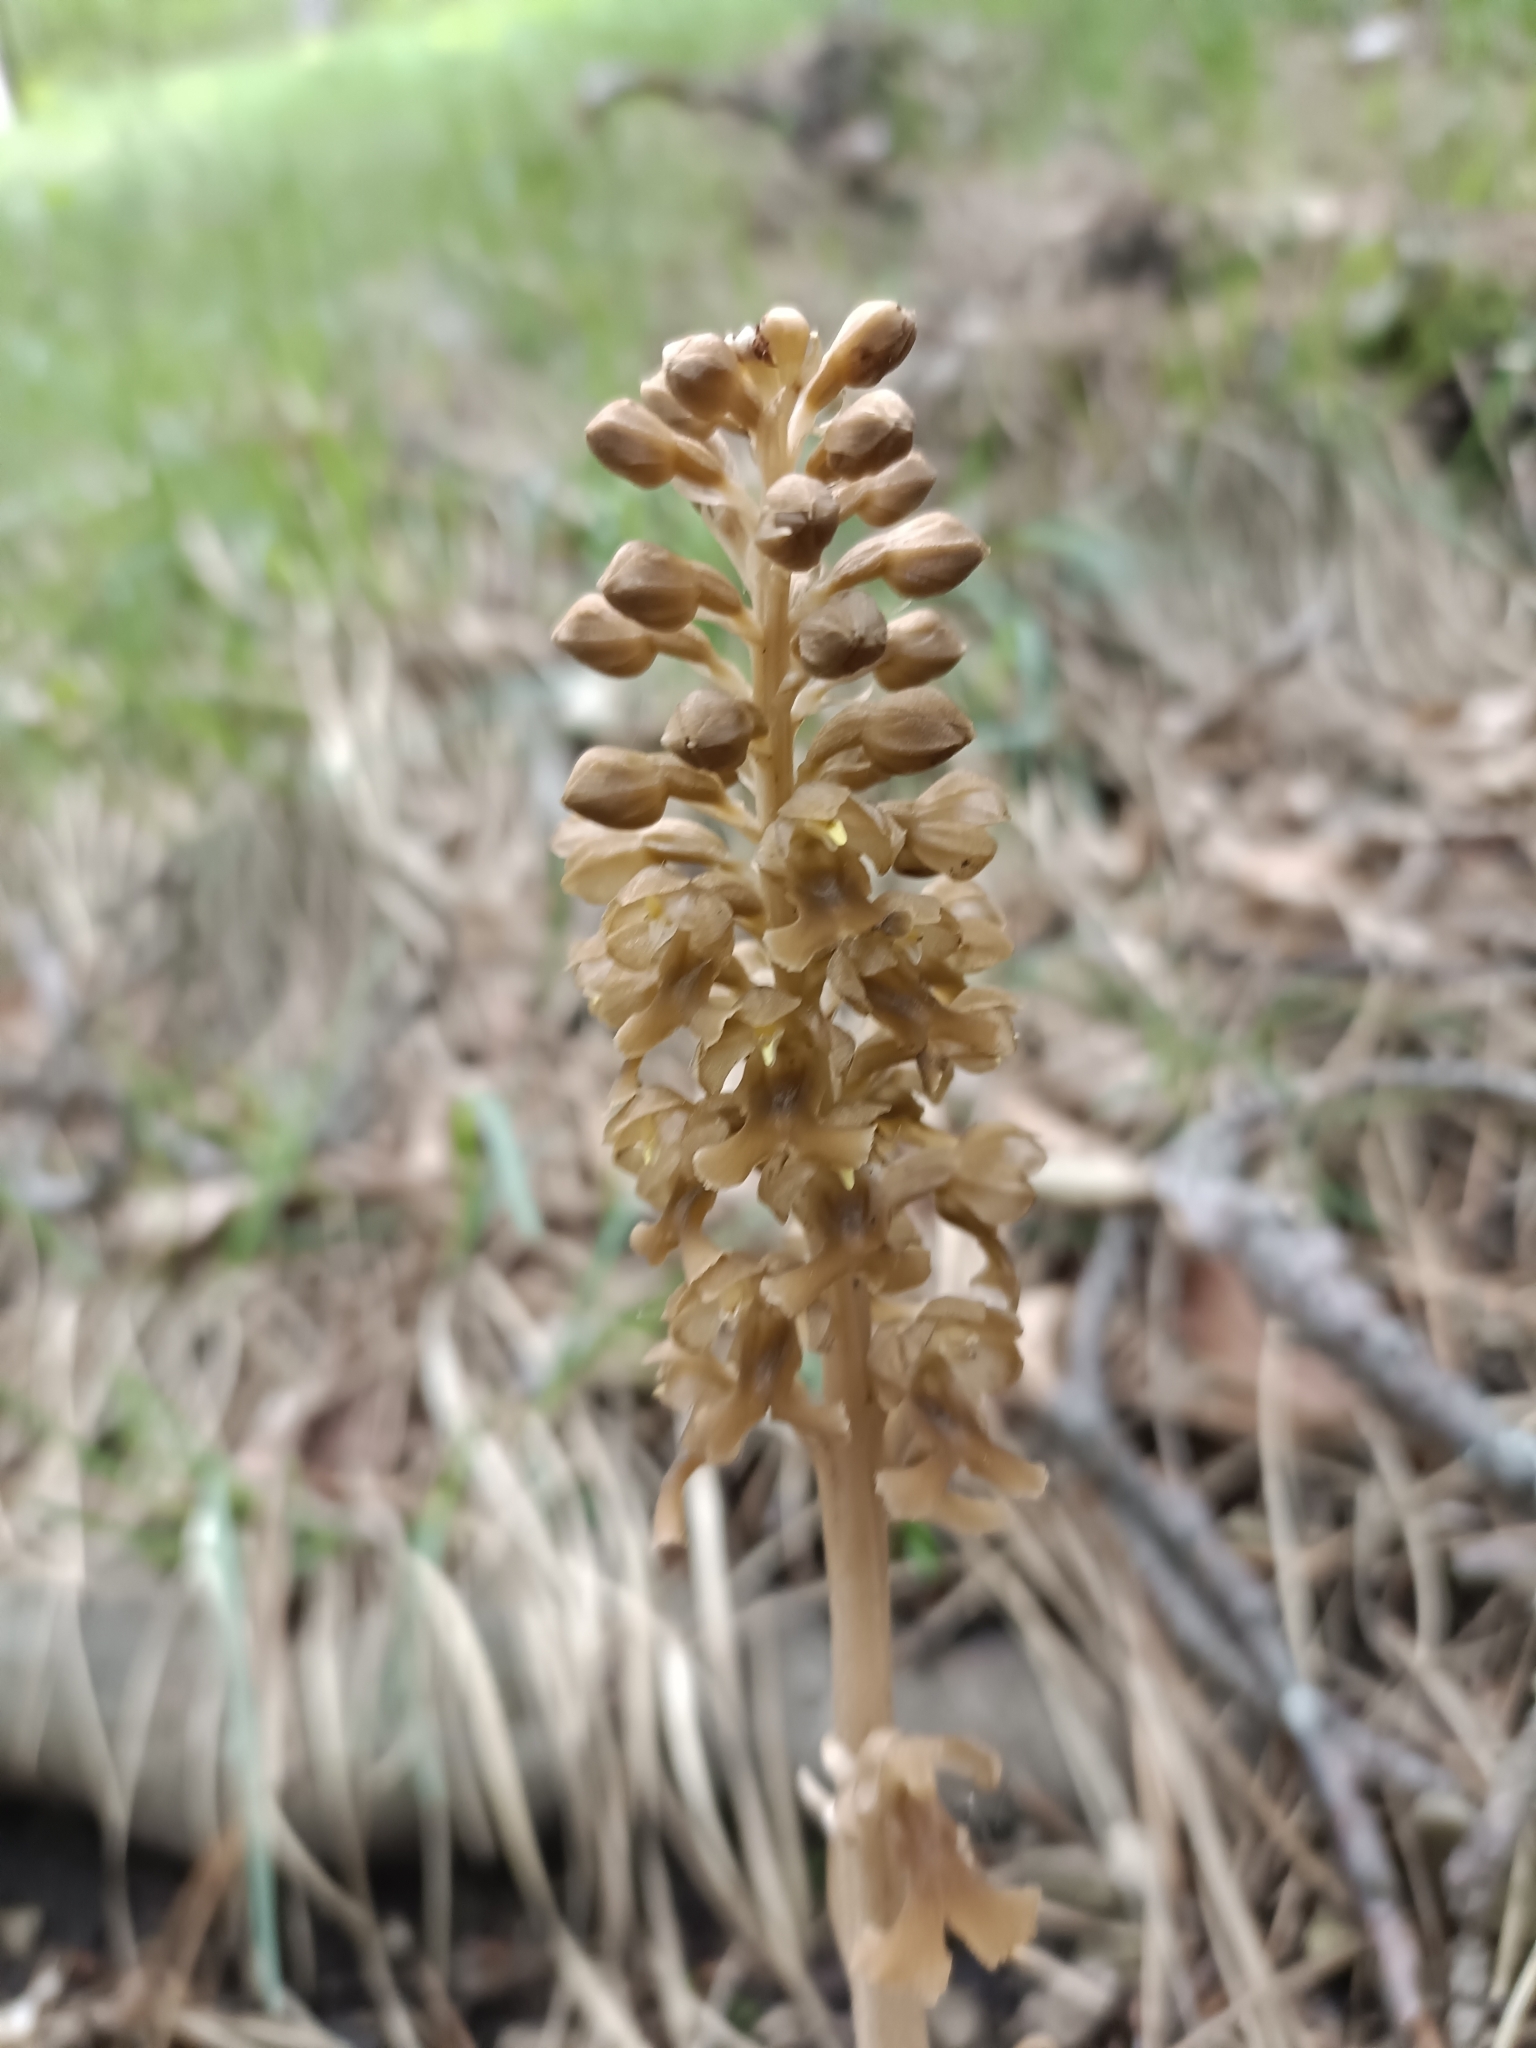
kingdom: Plantae
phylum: Tracheophyta
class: Liliopsida
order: Asparagales
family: Orchidaceae
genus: Neottia
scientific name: Neottia nidus-avis
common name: Bird's-nest orchid
